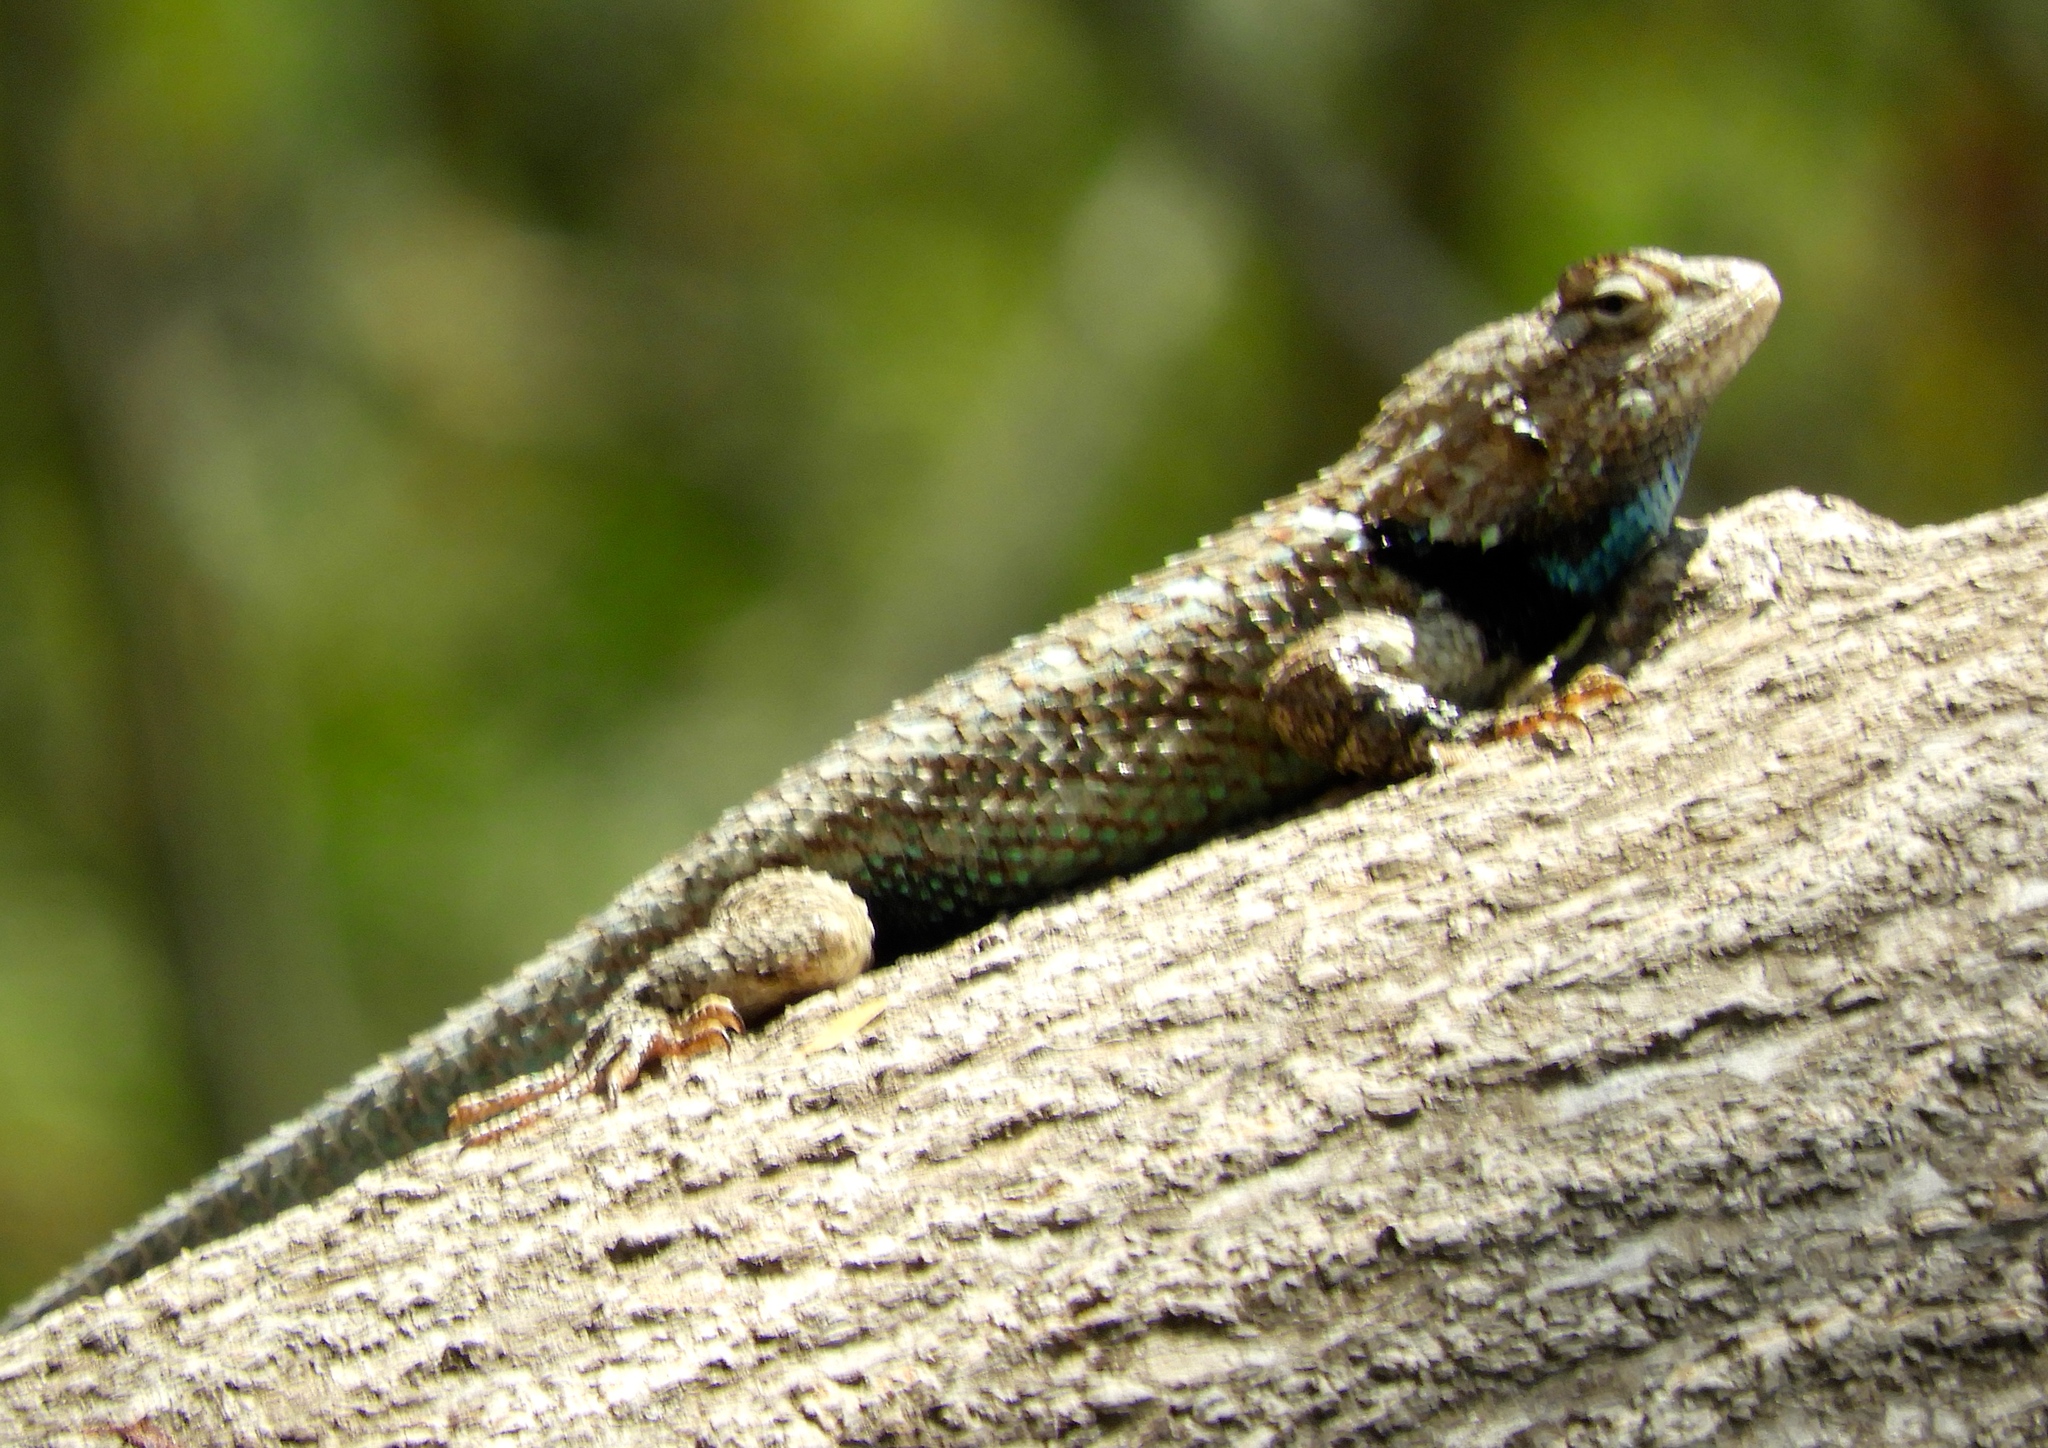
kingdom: Animalia
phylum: Chordata
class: Squamata
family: Phrynosomatidae
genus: Sceloporus
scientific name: Sceloporus clarkii
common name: Clark's spiny lizard
